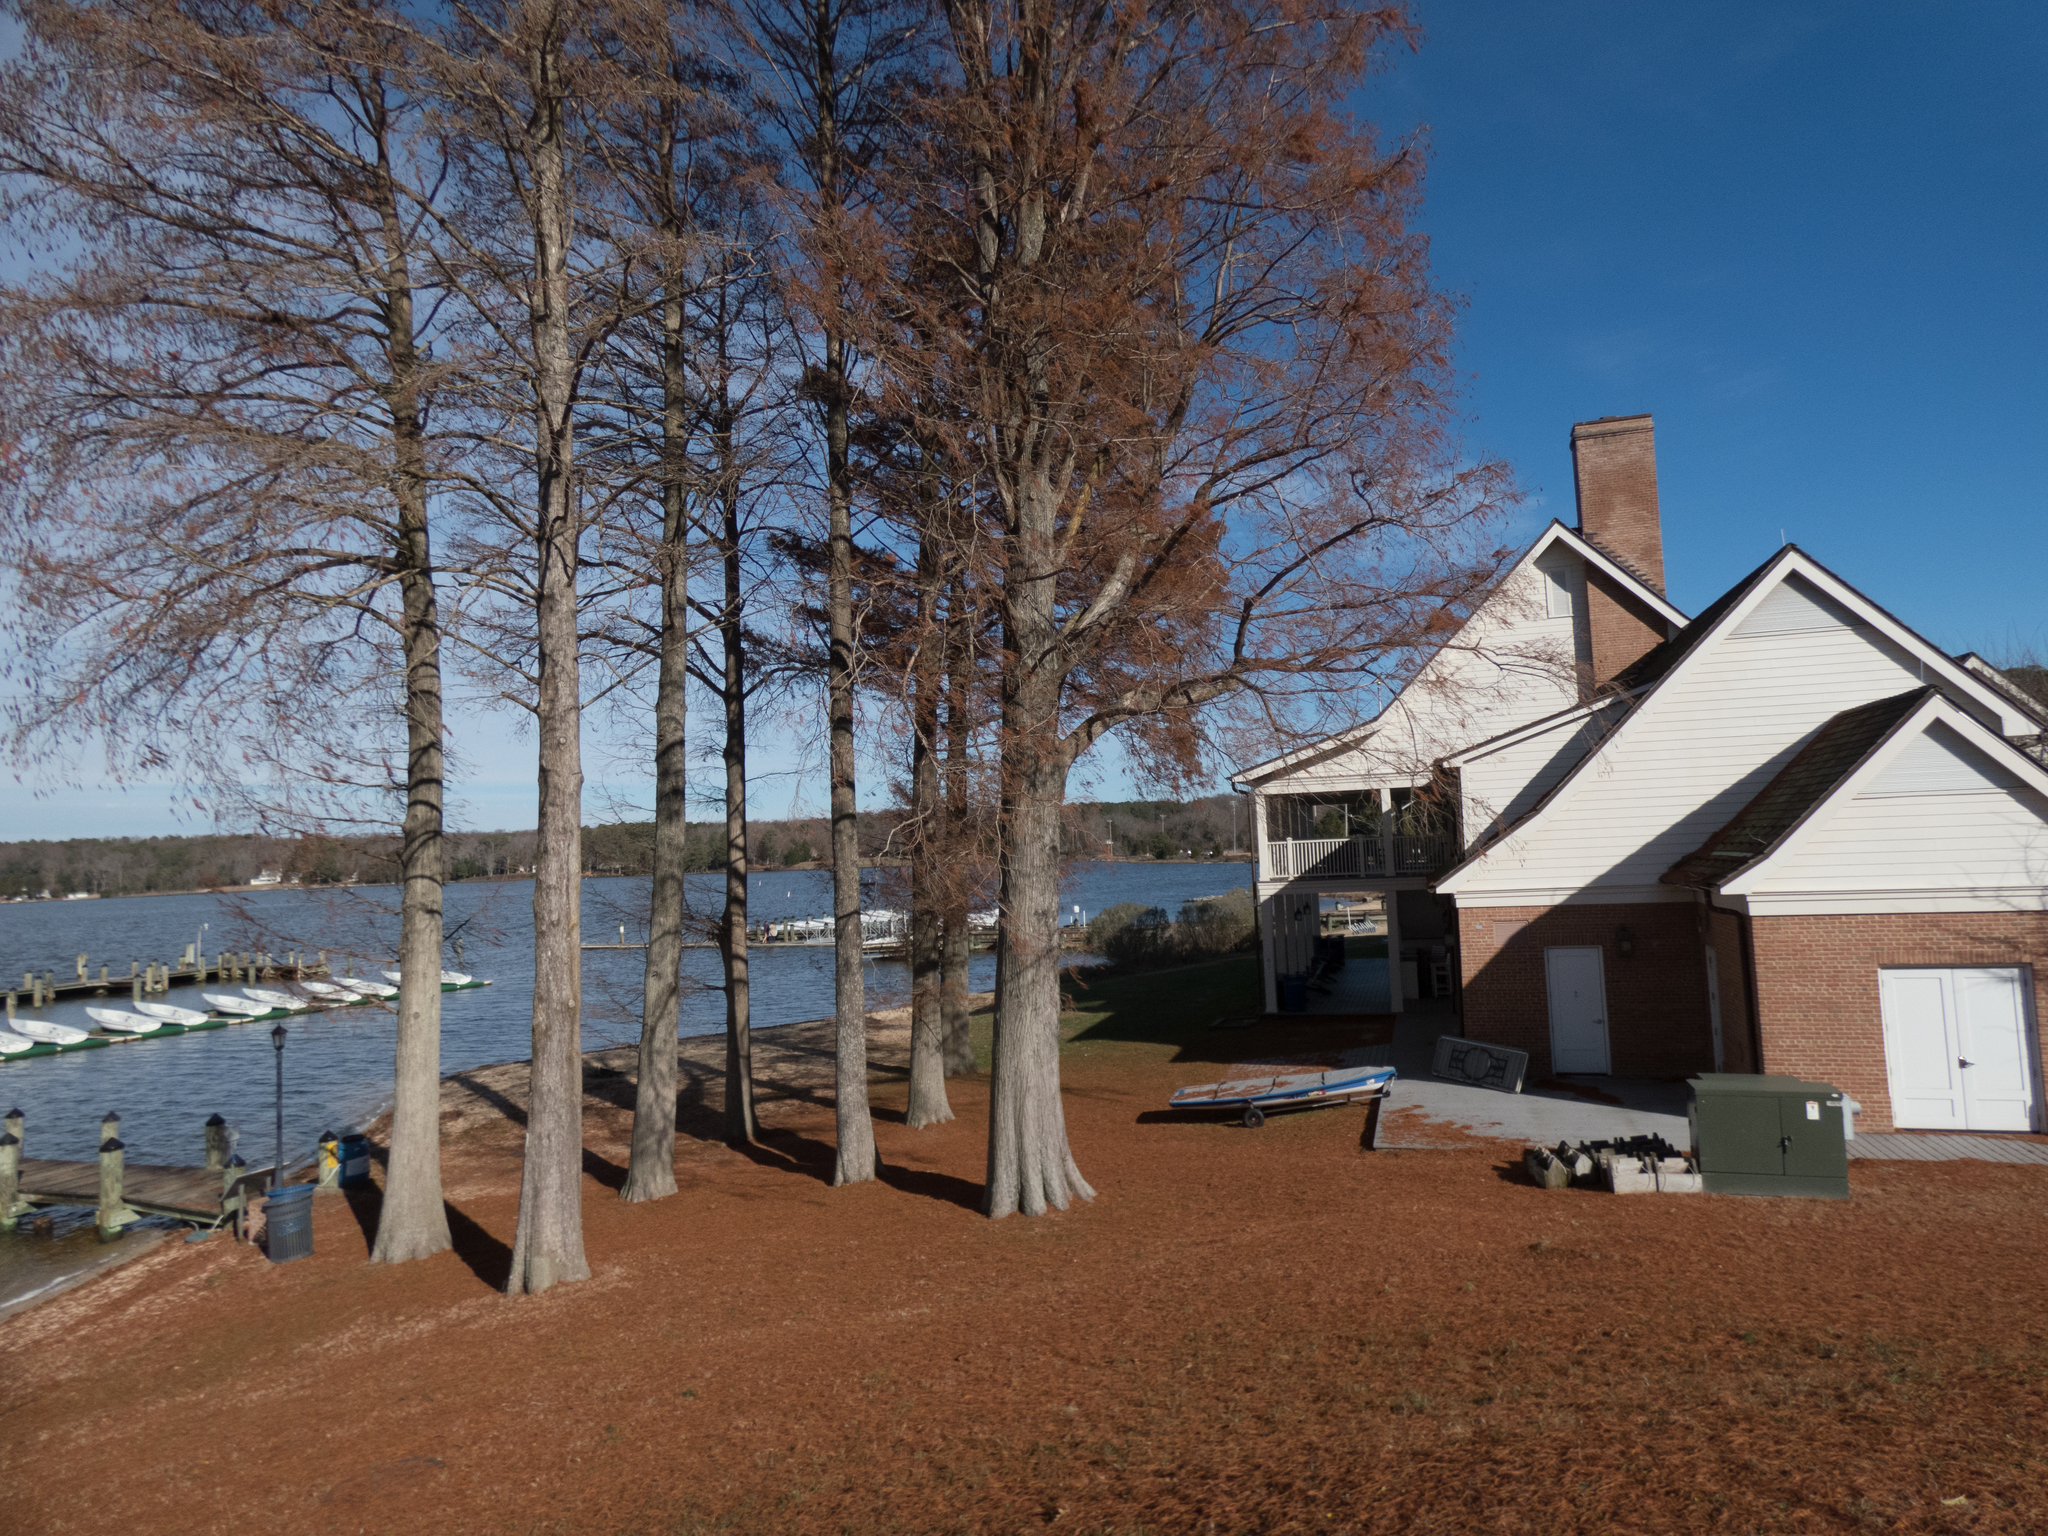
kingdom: Plantae
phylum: Tracheophyta
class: Pinopsida
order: Pinales
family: Cupressaceae
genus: Taxodium
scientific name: Taxodium distichum
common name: Bald cypress
